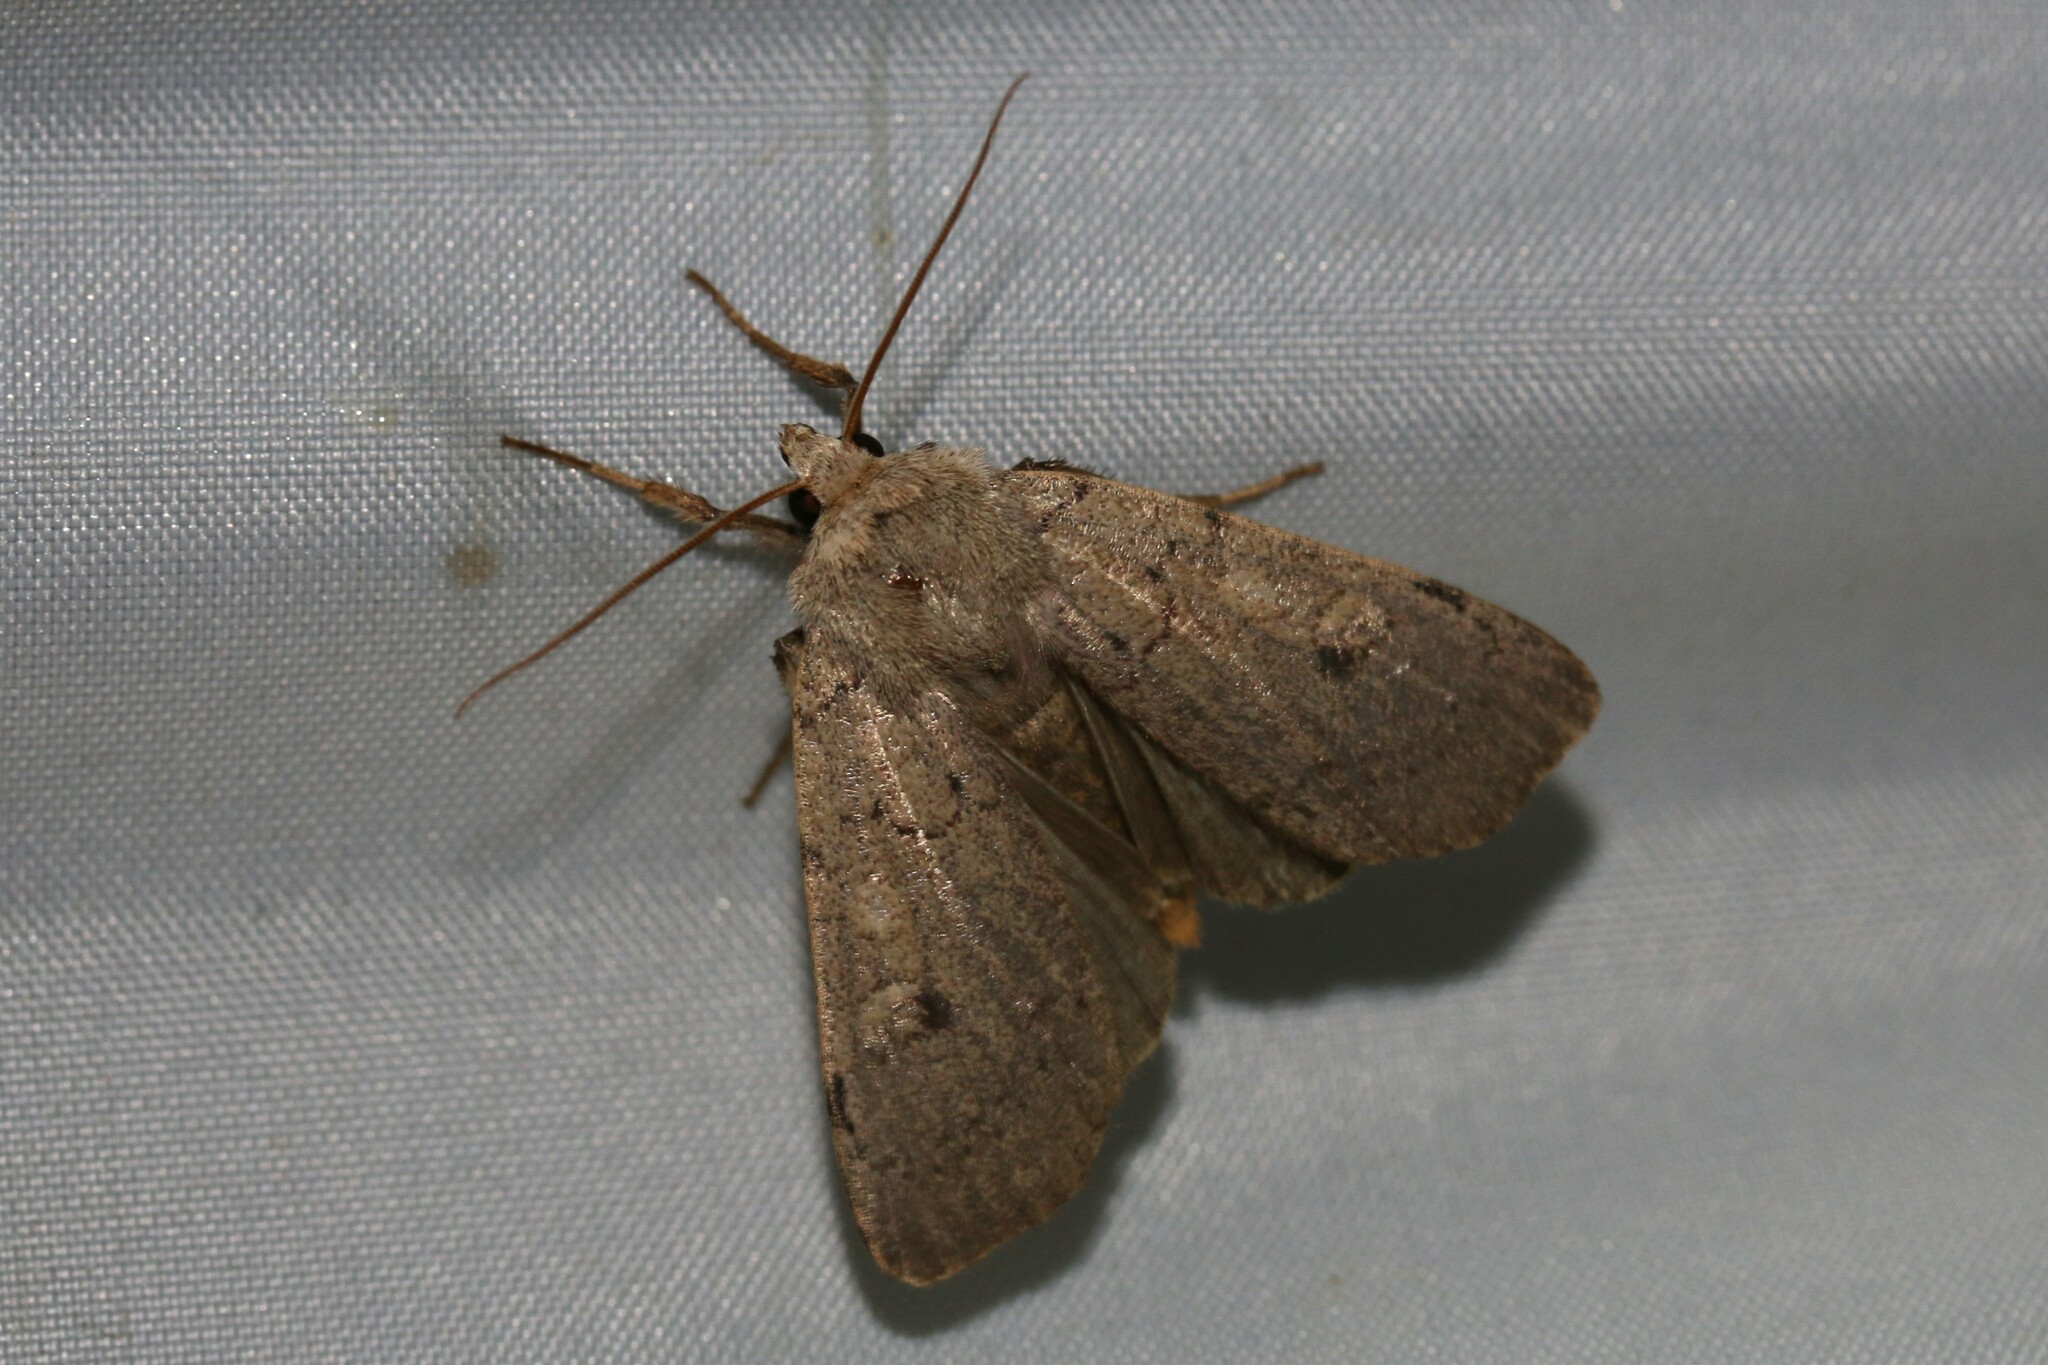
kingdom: Animalia
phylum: Arthropoda
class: Insecta
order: Lepidoptera
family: Noctuidae
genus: Xestia
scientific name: Xestia castanea
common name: Neglected rustic
